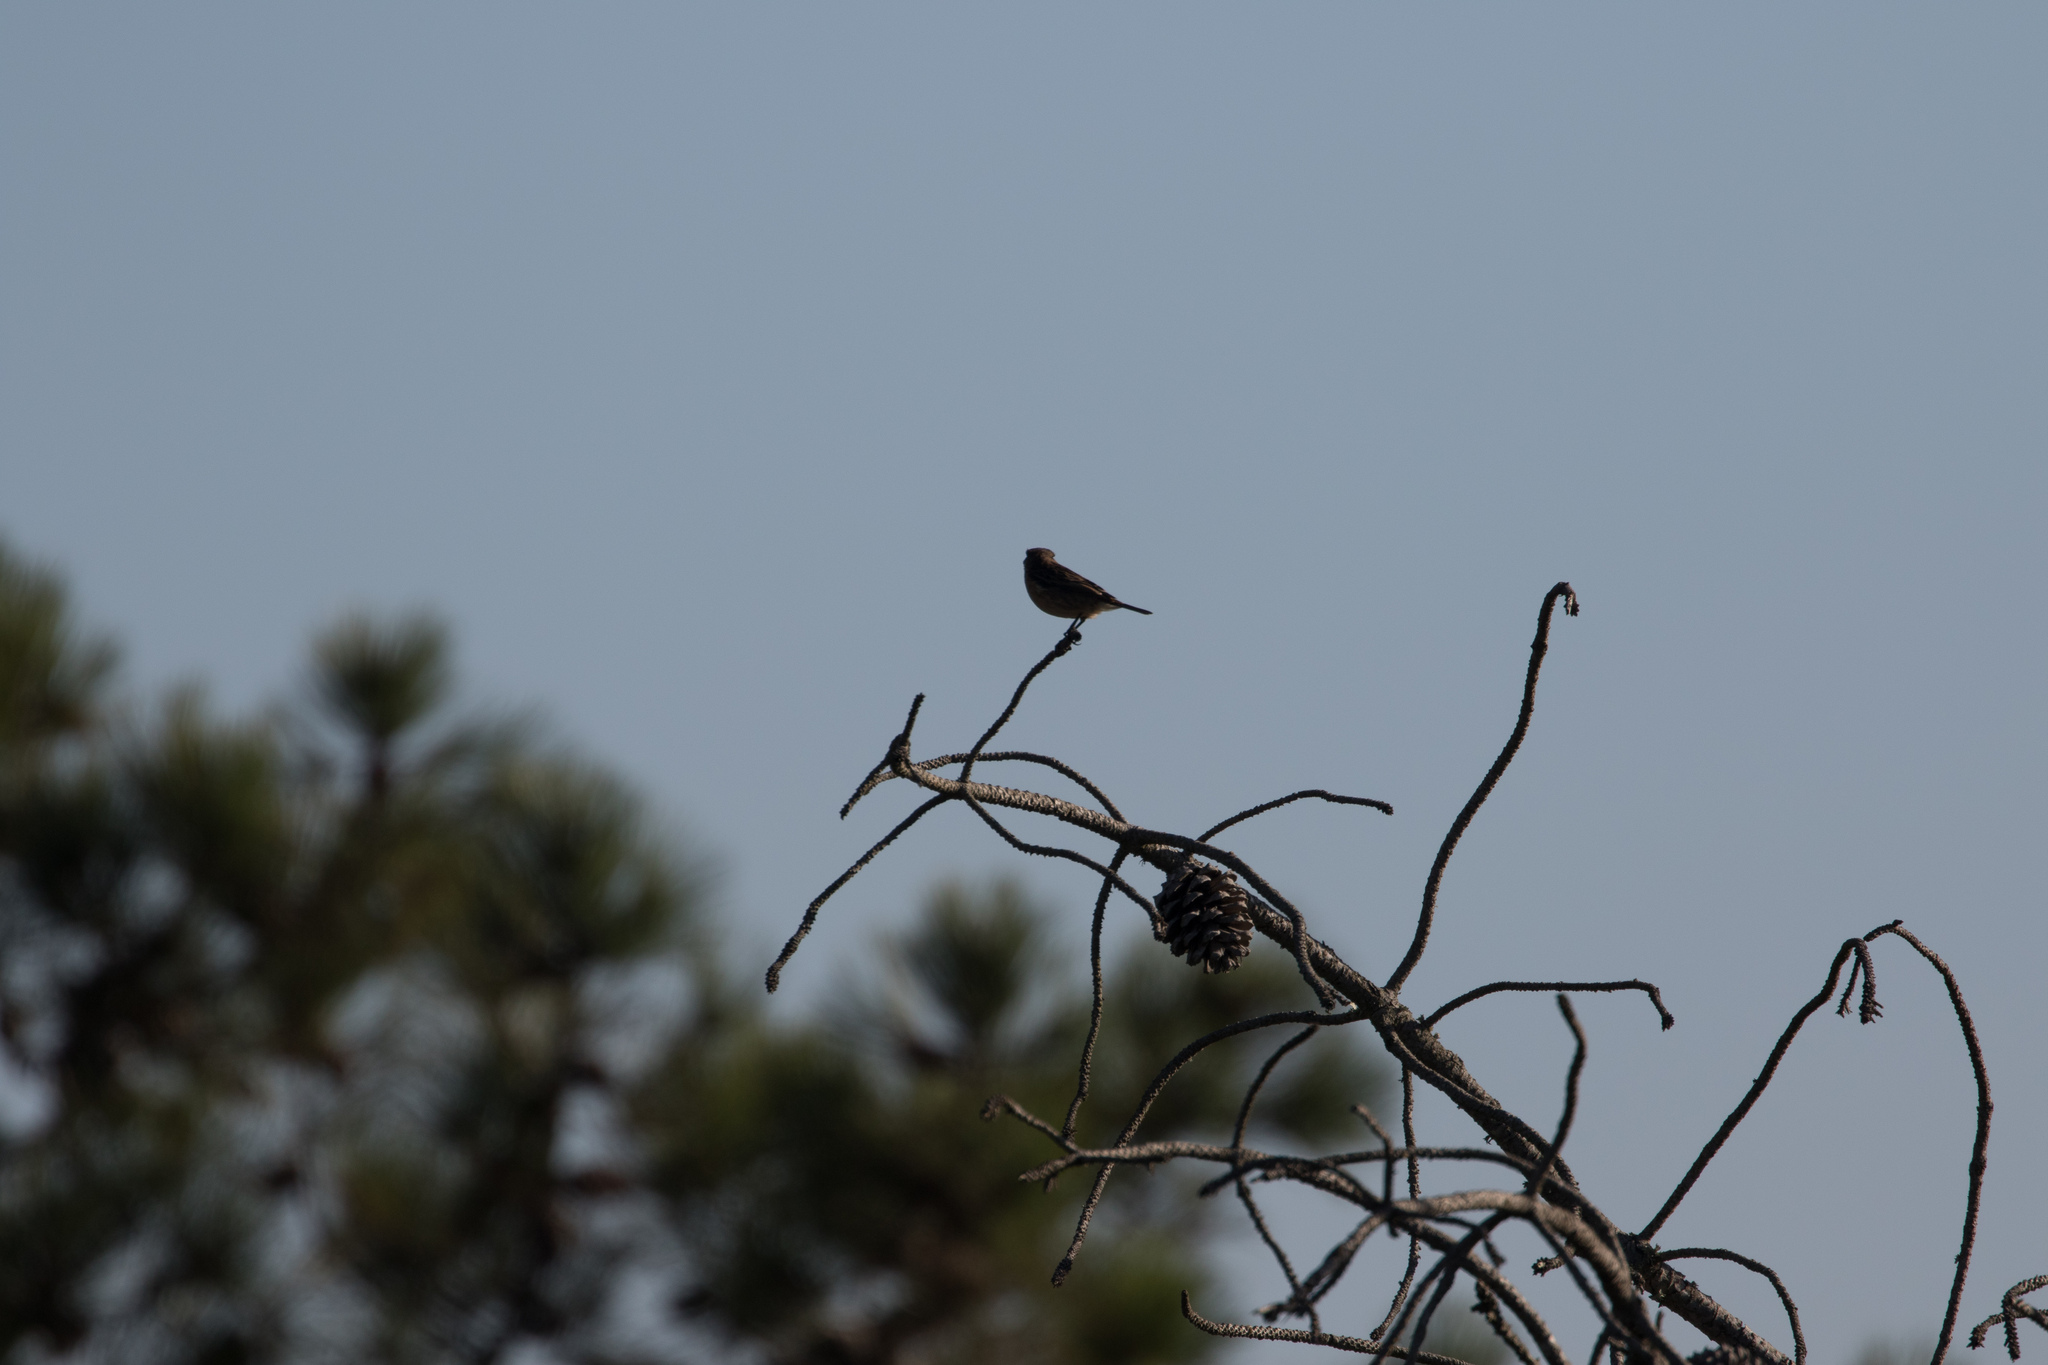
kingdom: Animalia
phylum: Chordata
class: Aves
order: Passeriformes
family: Muscicapidae
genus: Saxicola
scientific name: Saxicola rubicola
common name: European stonechat
